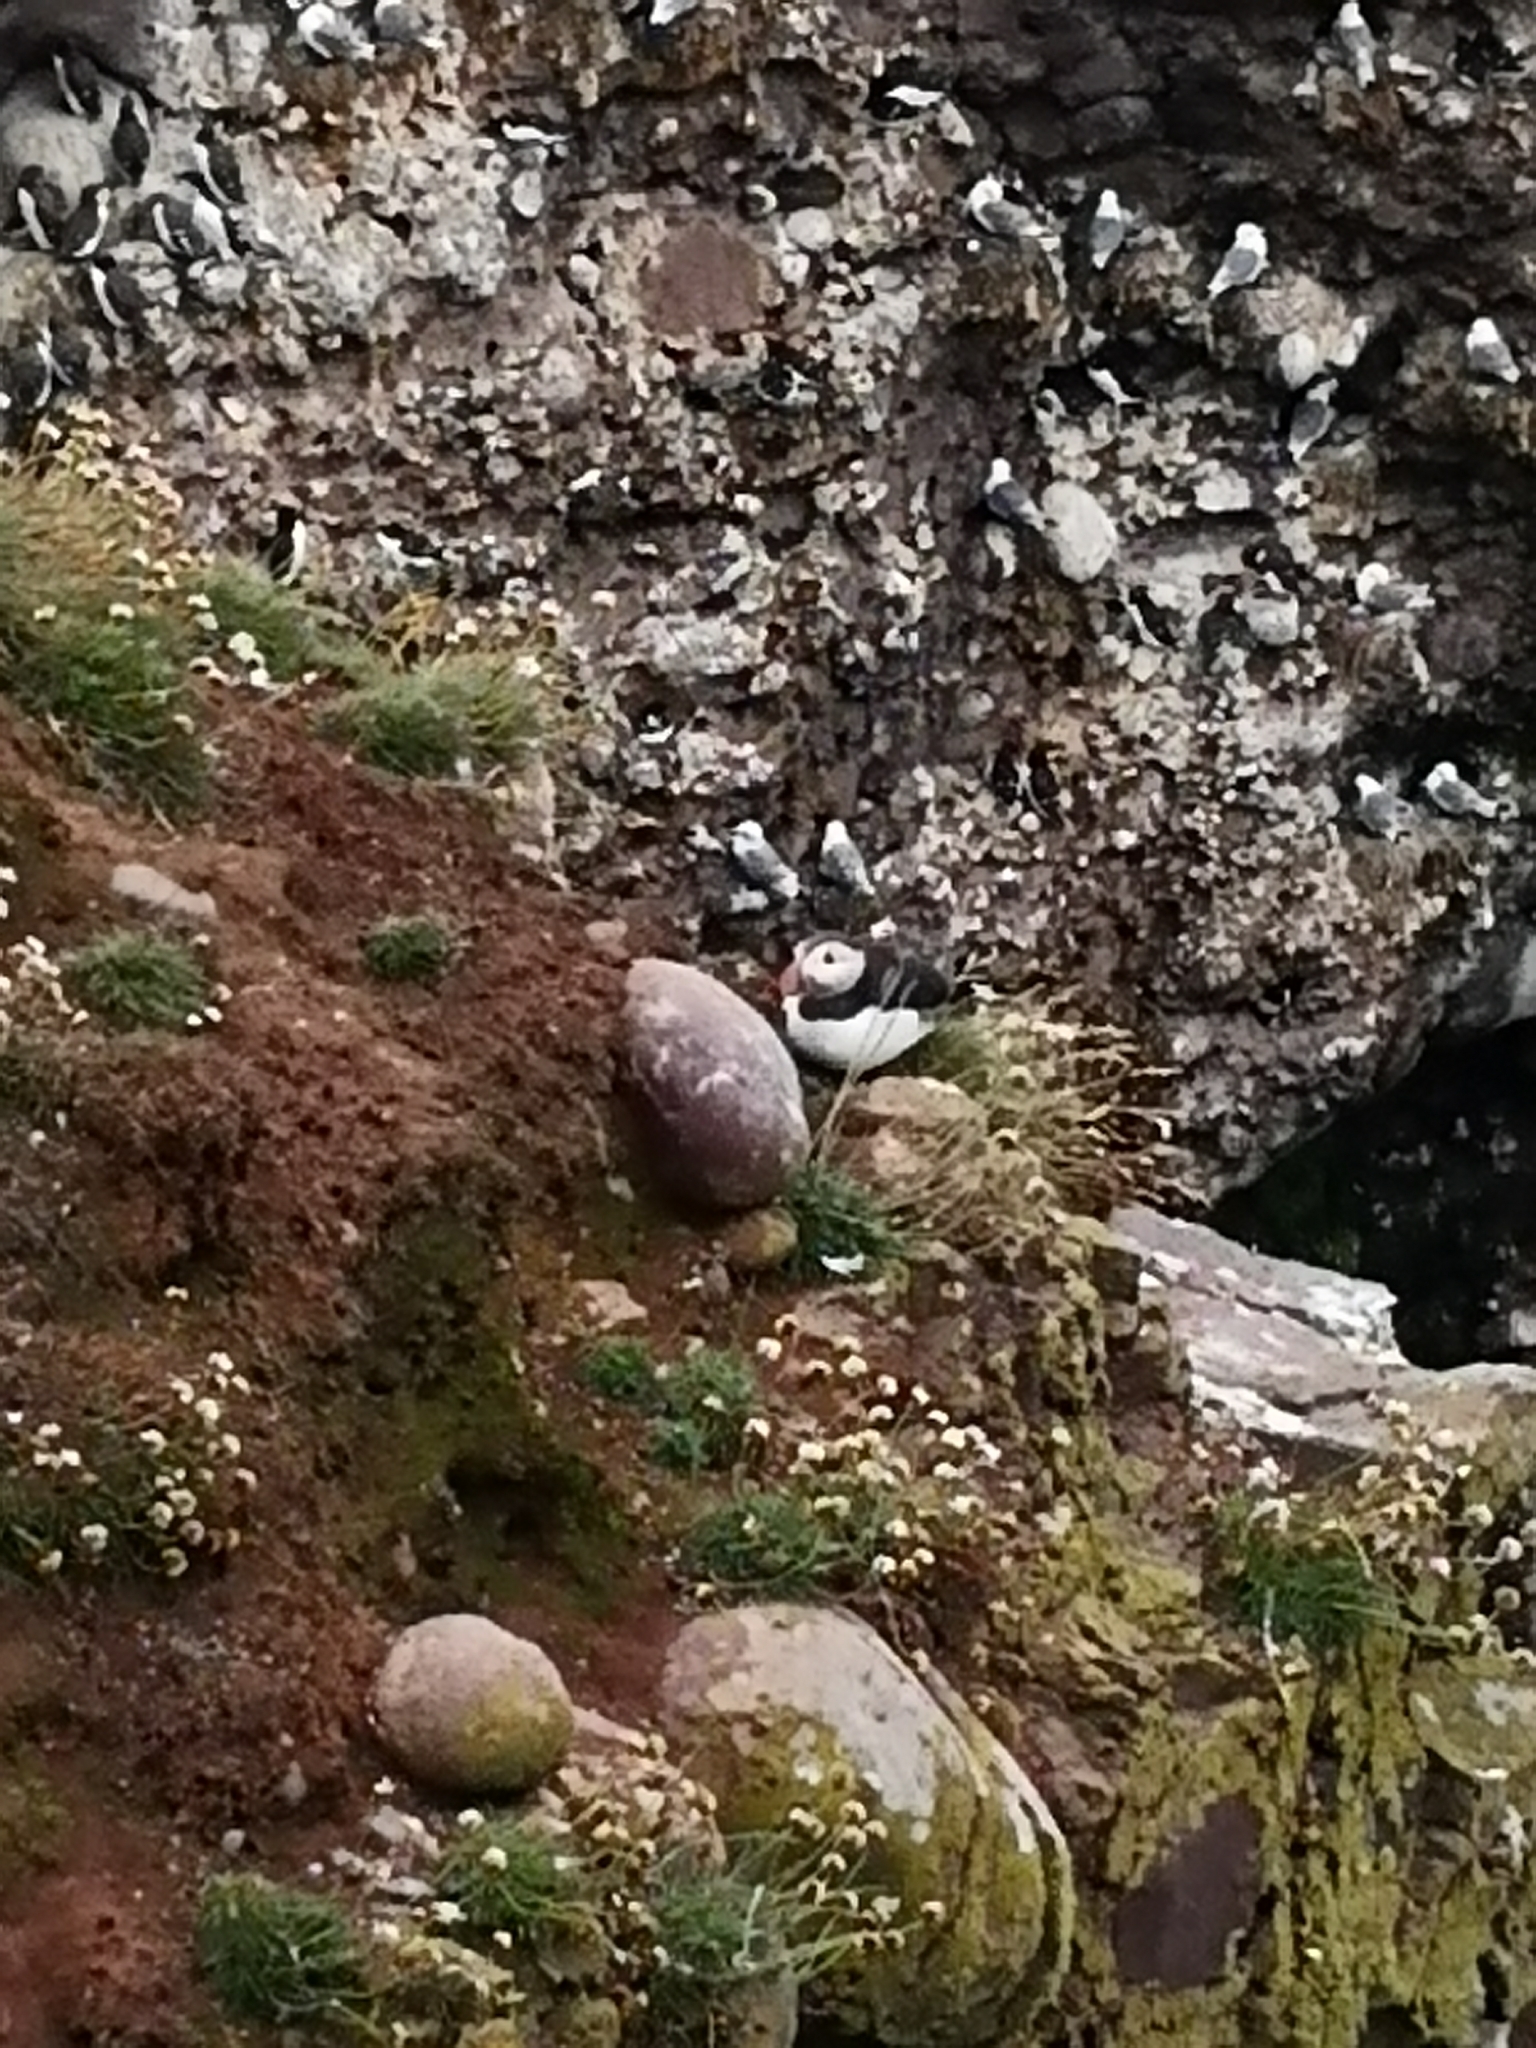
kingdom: Animalia
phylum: Chordata
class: Aves
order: Charadriiformes
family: Alcidae
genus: Fratercula
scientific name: Fratercula arctica
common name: Atlantic puffin
